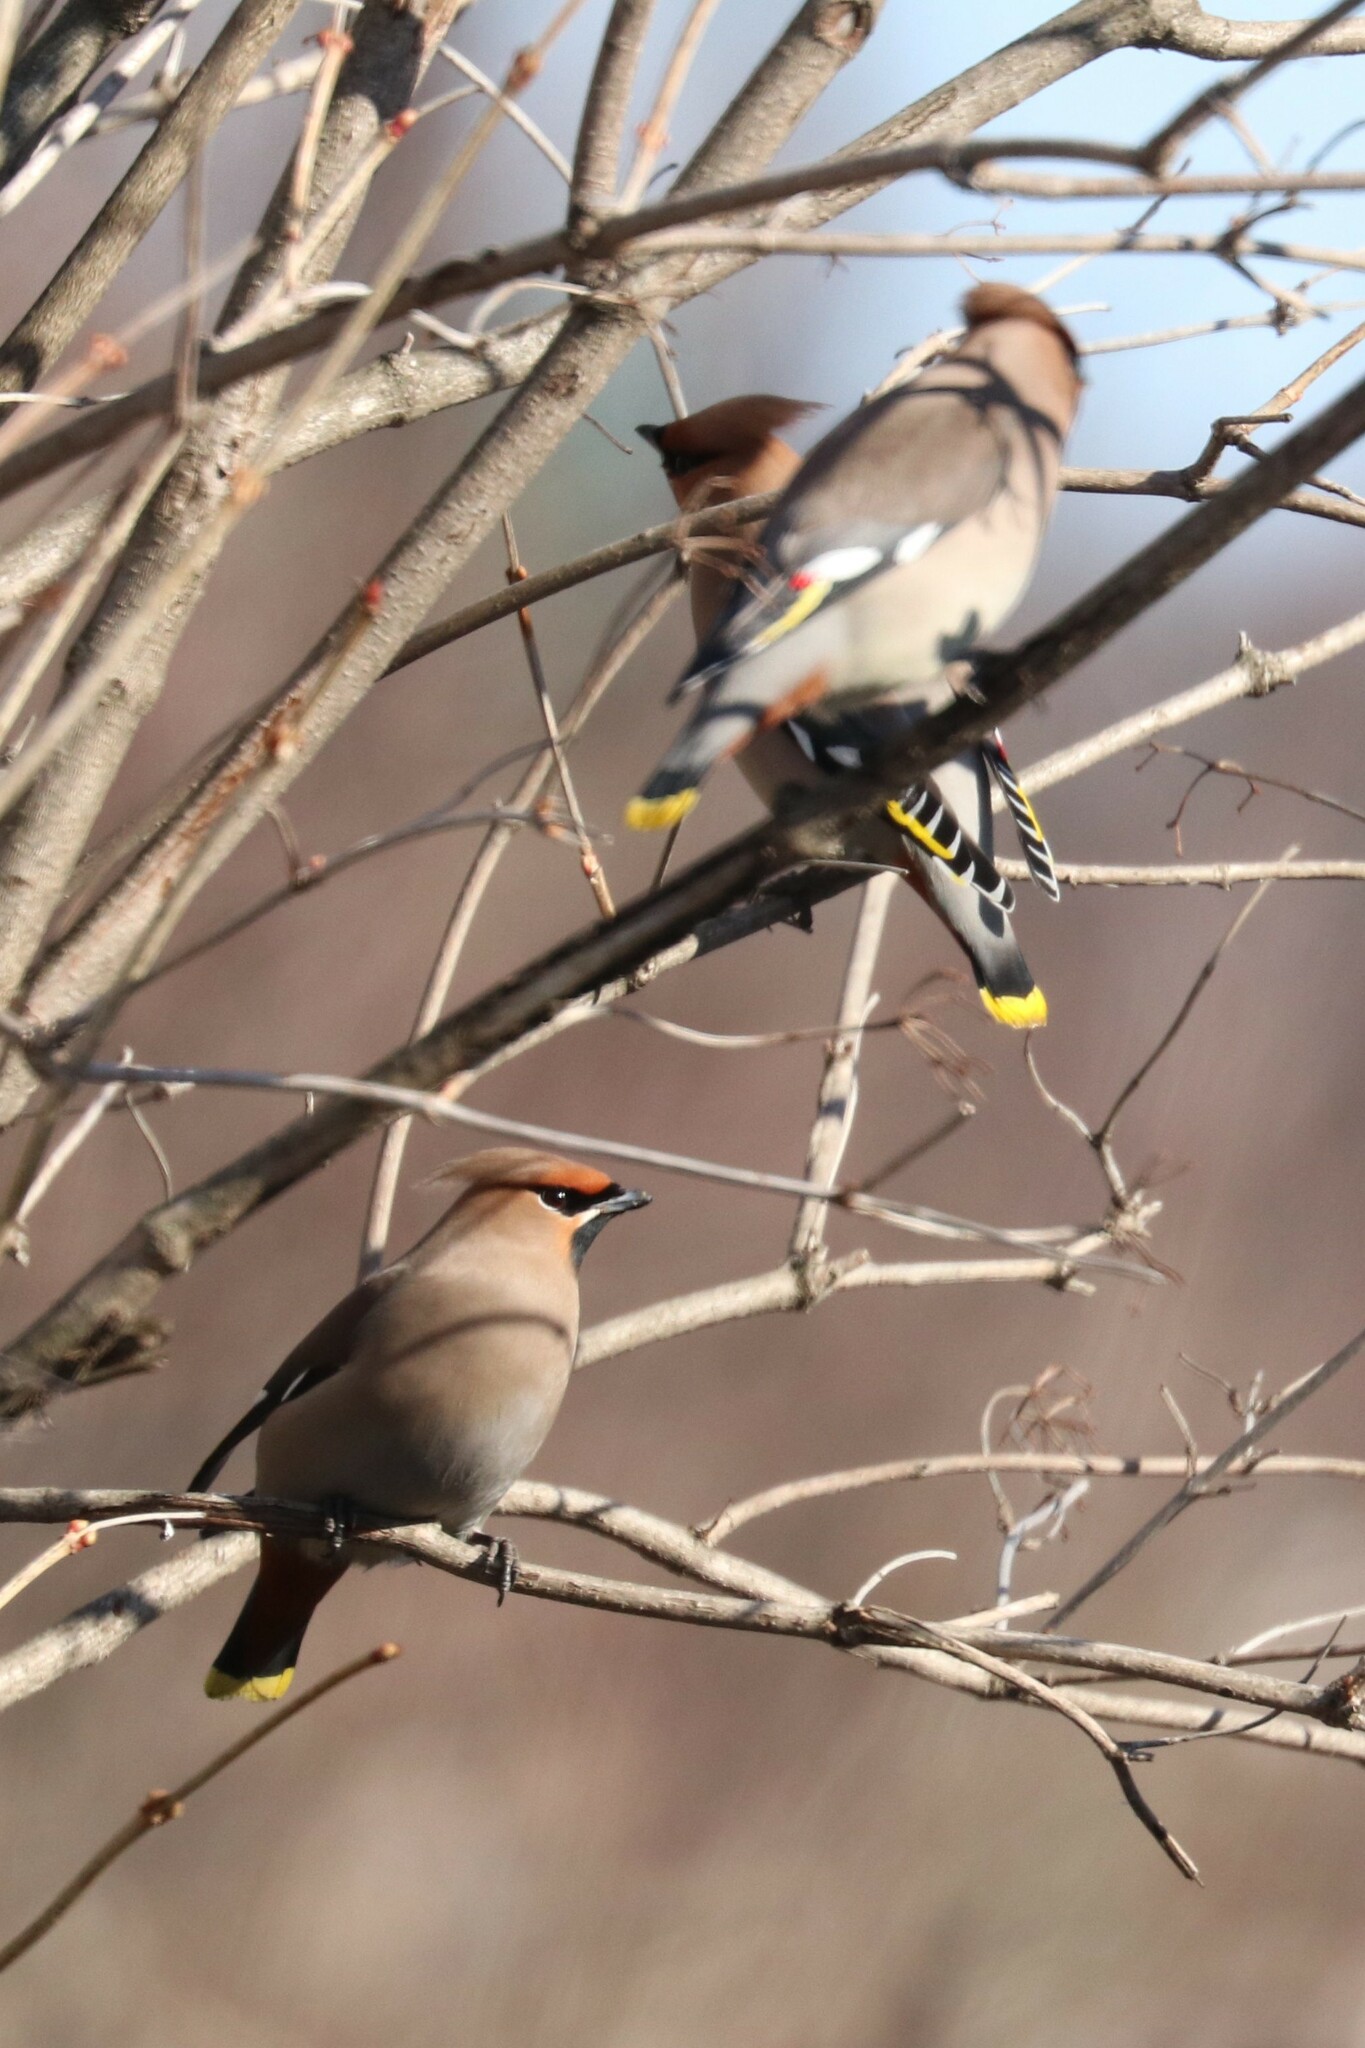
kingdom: Animalia
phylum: Chordata
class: Aves
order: Passeriformes
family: Bombycillidae
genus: Bombycilla
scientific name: Bombycilla garrulus
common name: Bohemian waxwing
